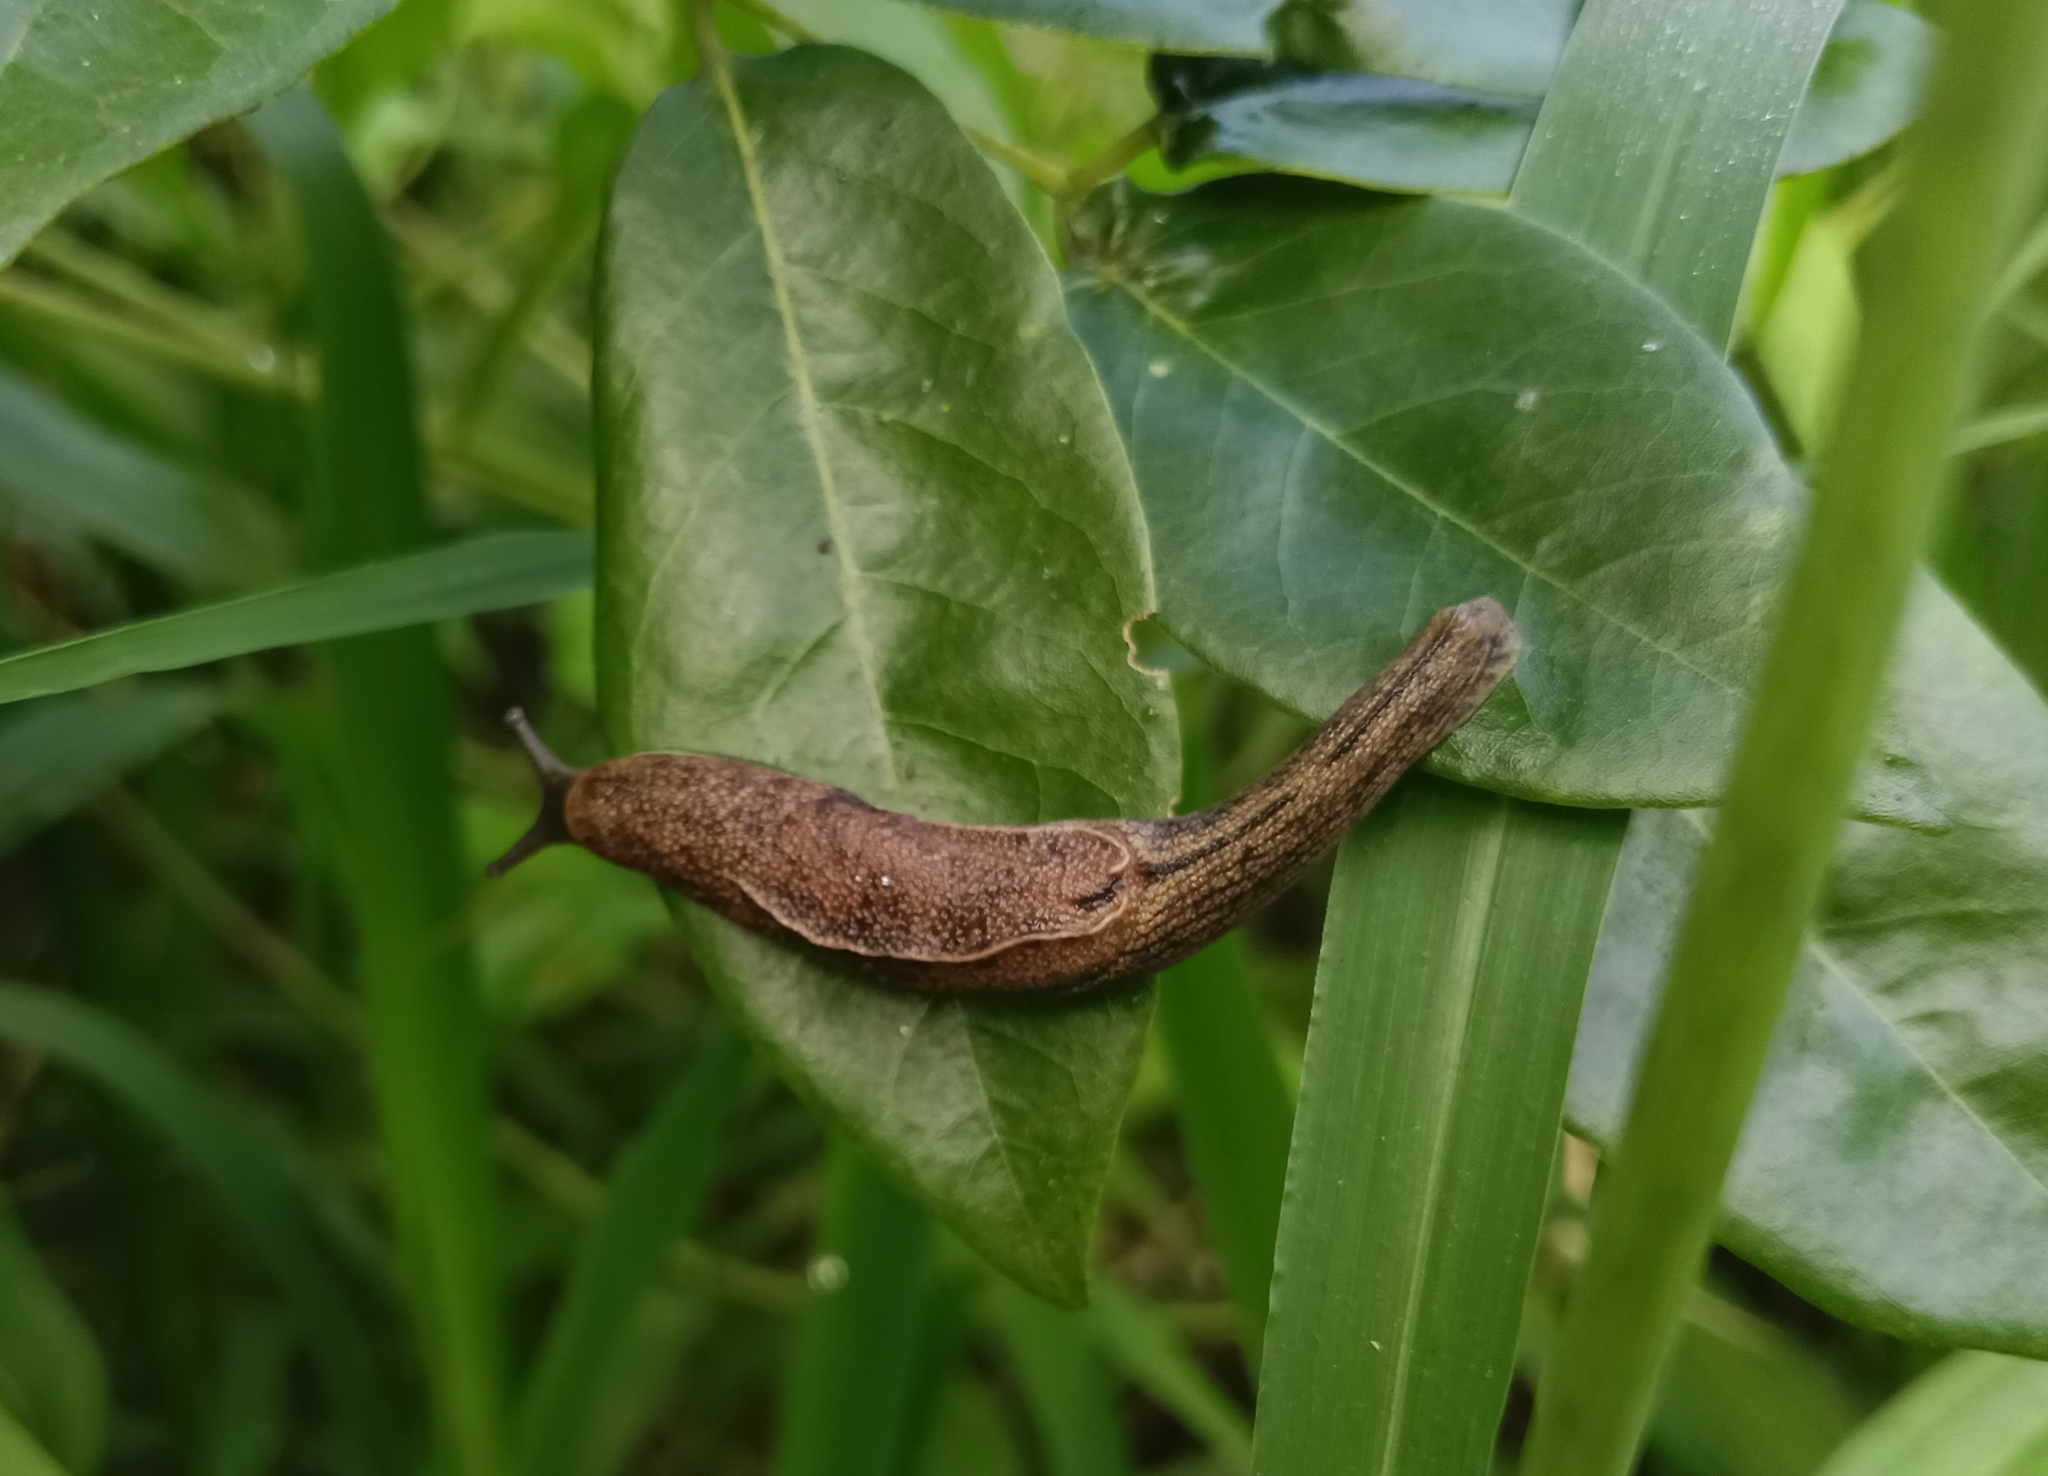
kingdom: Animalia
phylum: Mollusca
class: Gastropoda
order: Stylommatophora
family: Ariophantidae
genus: Mariaella
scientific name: Mariaella dussumieri
